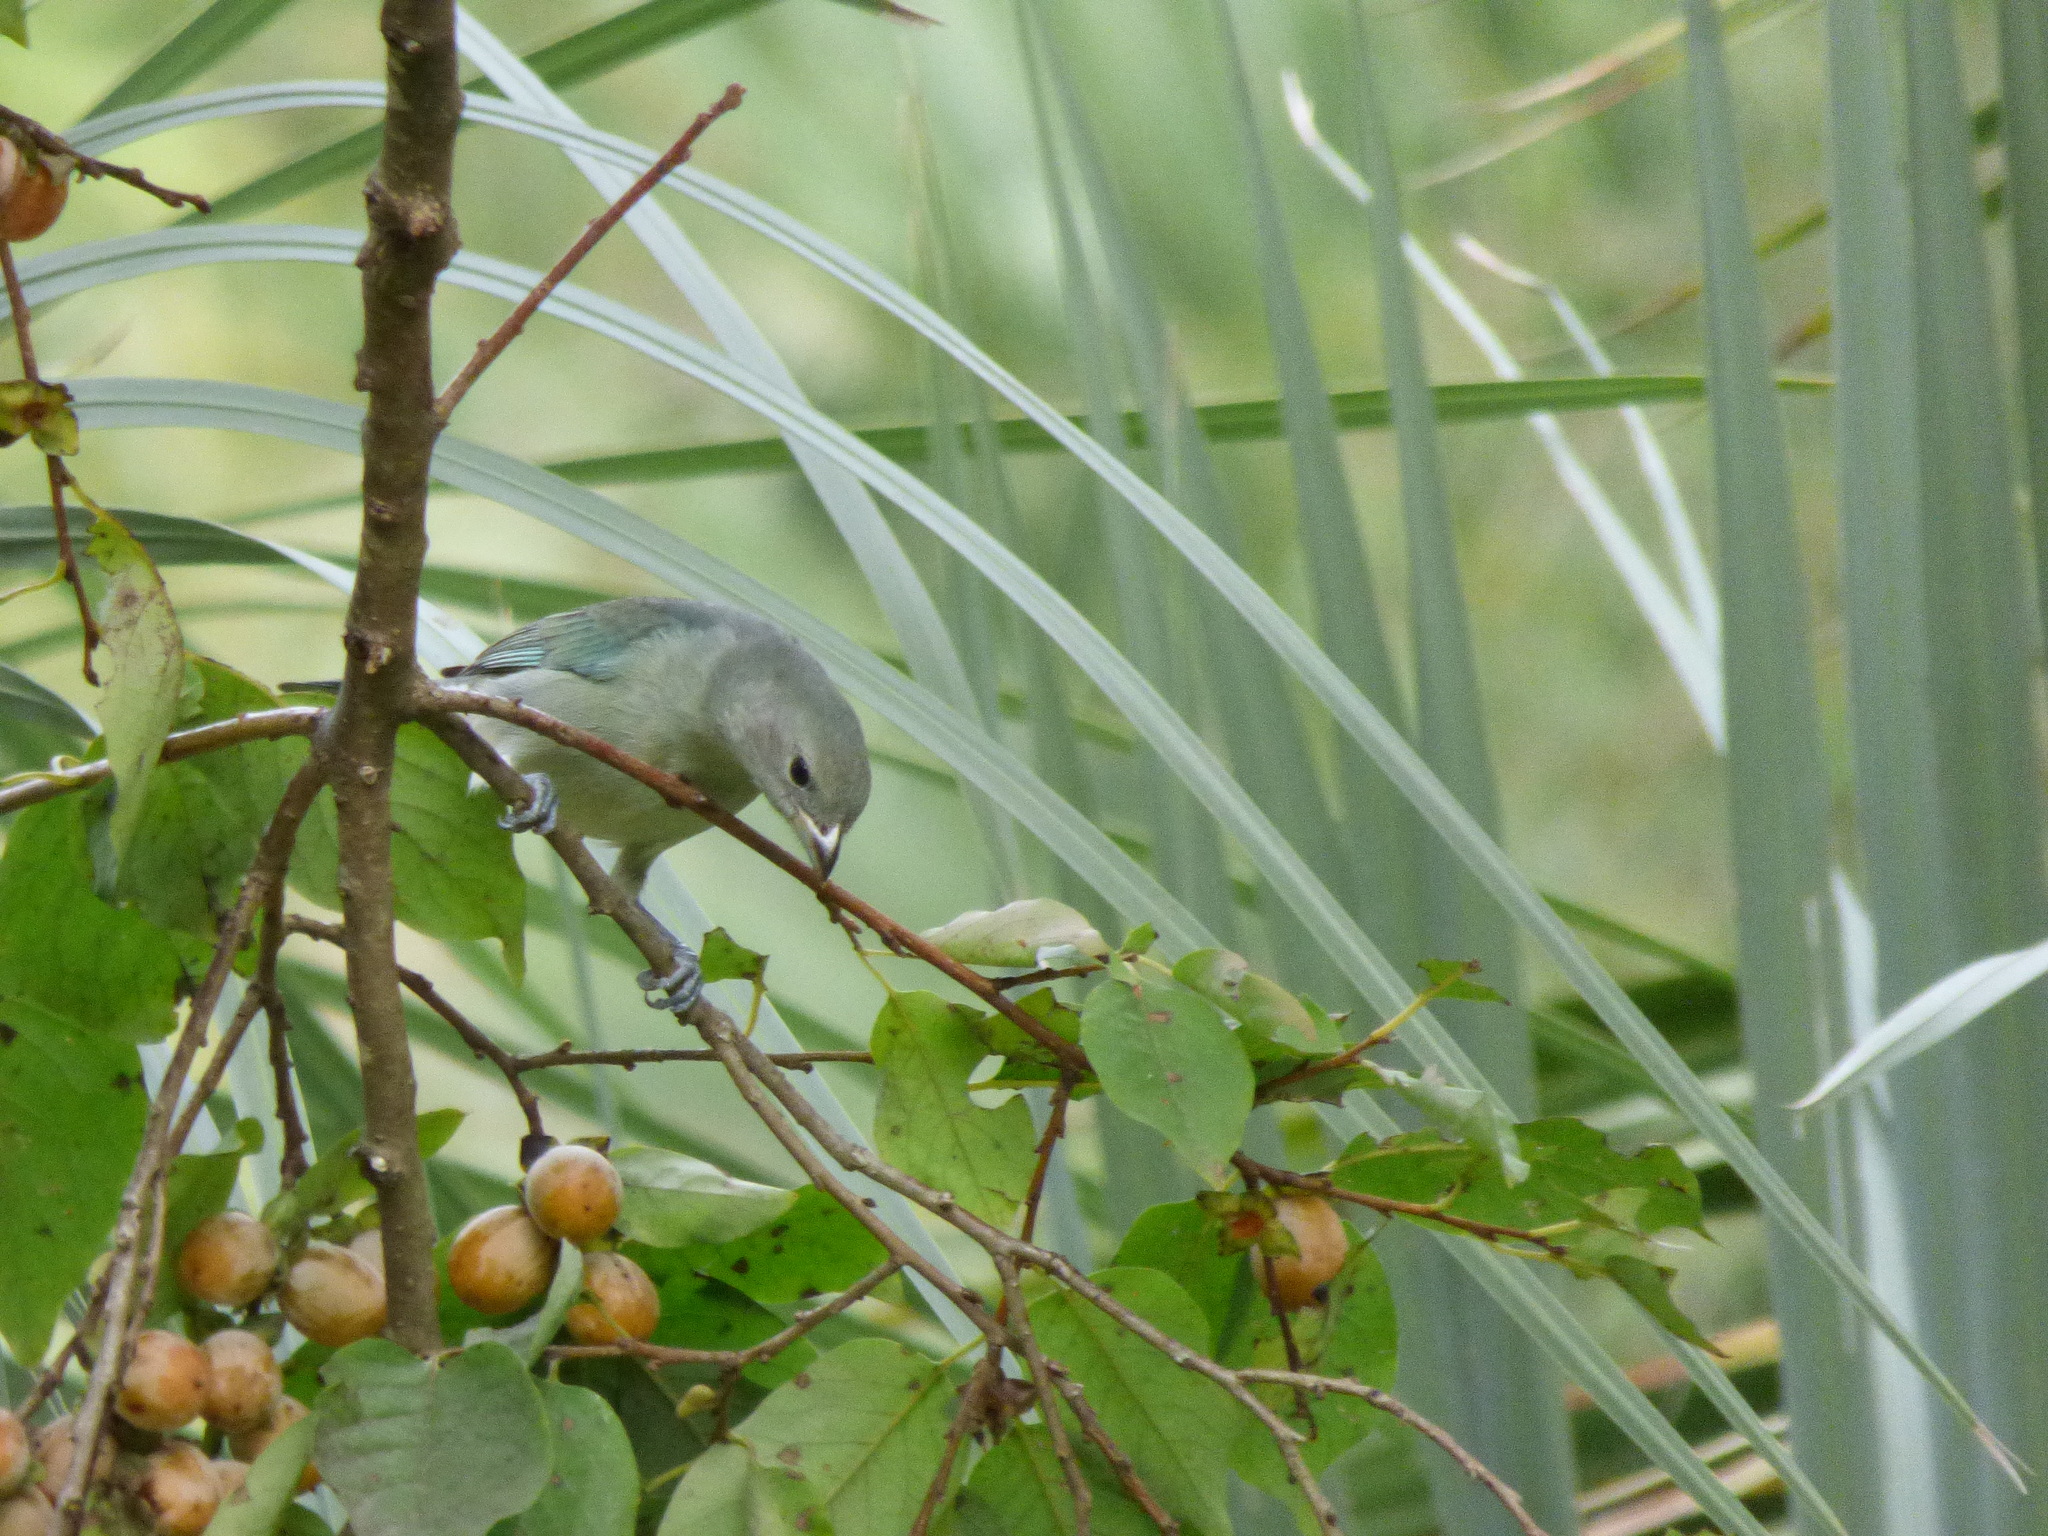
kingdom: Animalia
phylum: Chordata
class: Aves
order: Passeriformes
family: Thraupidae
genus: Thraupis
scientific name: Thraupis sayaca
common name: Sayaca tanager
